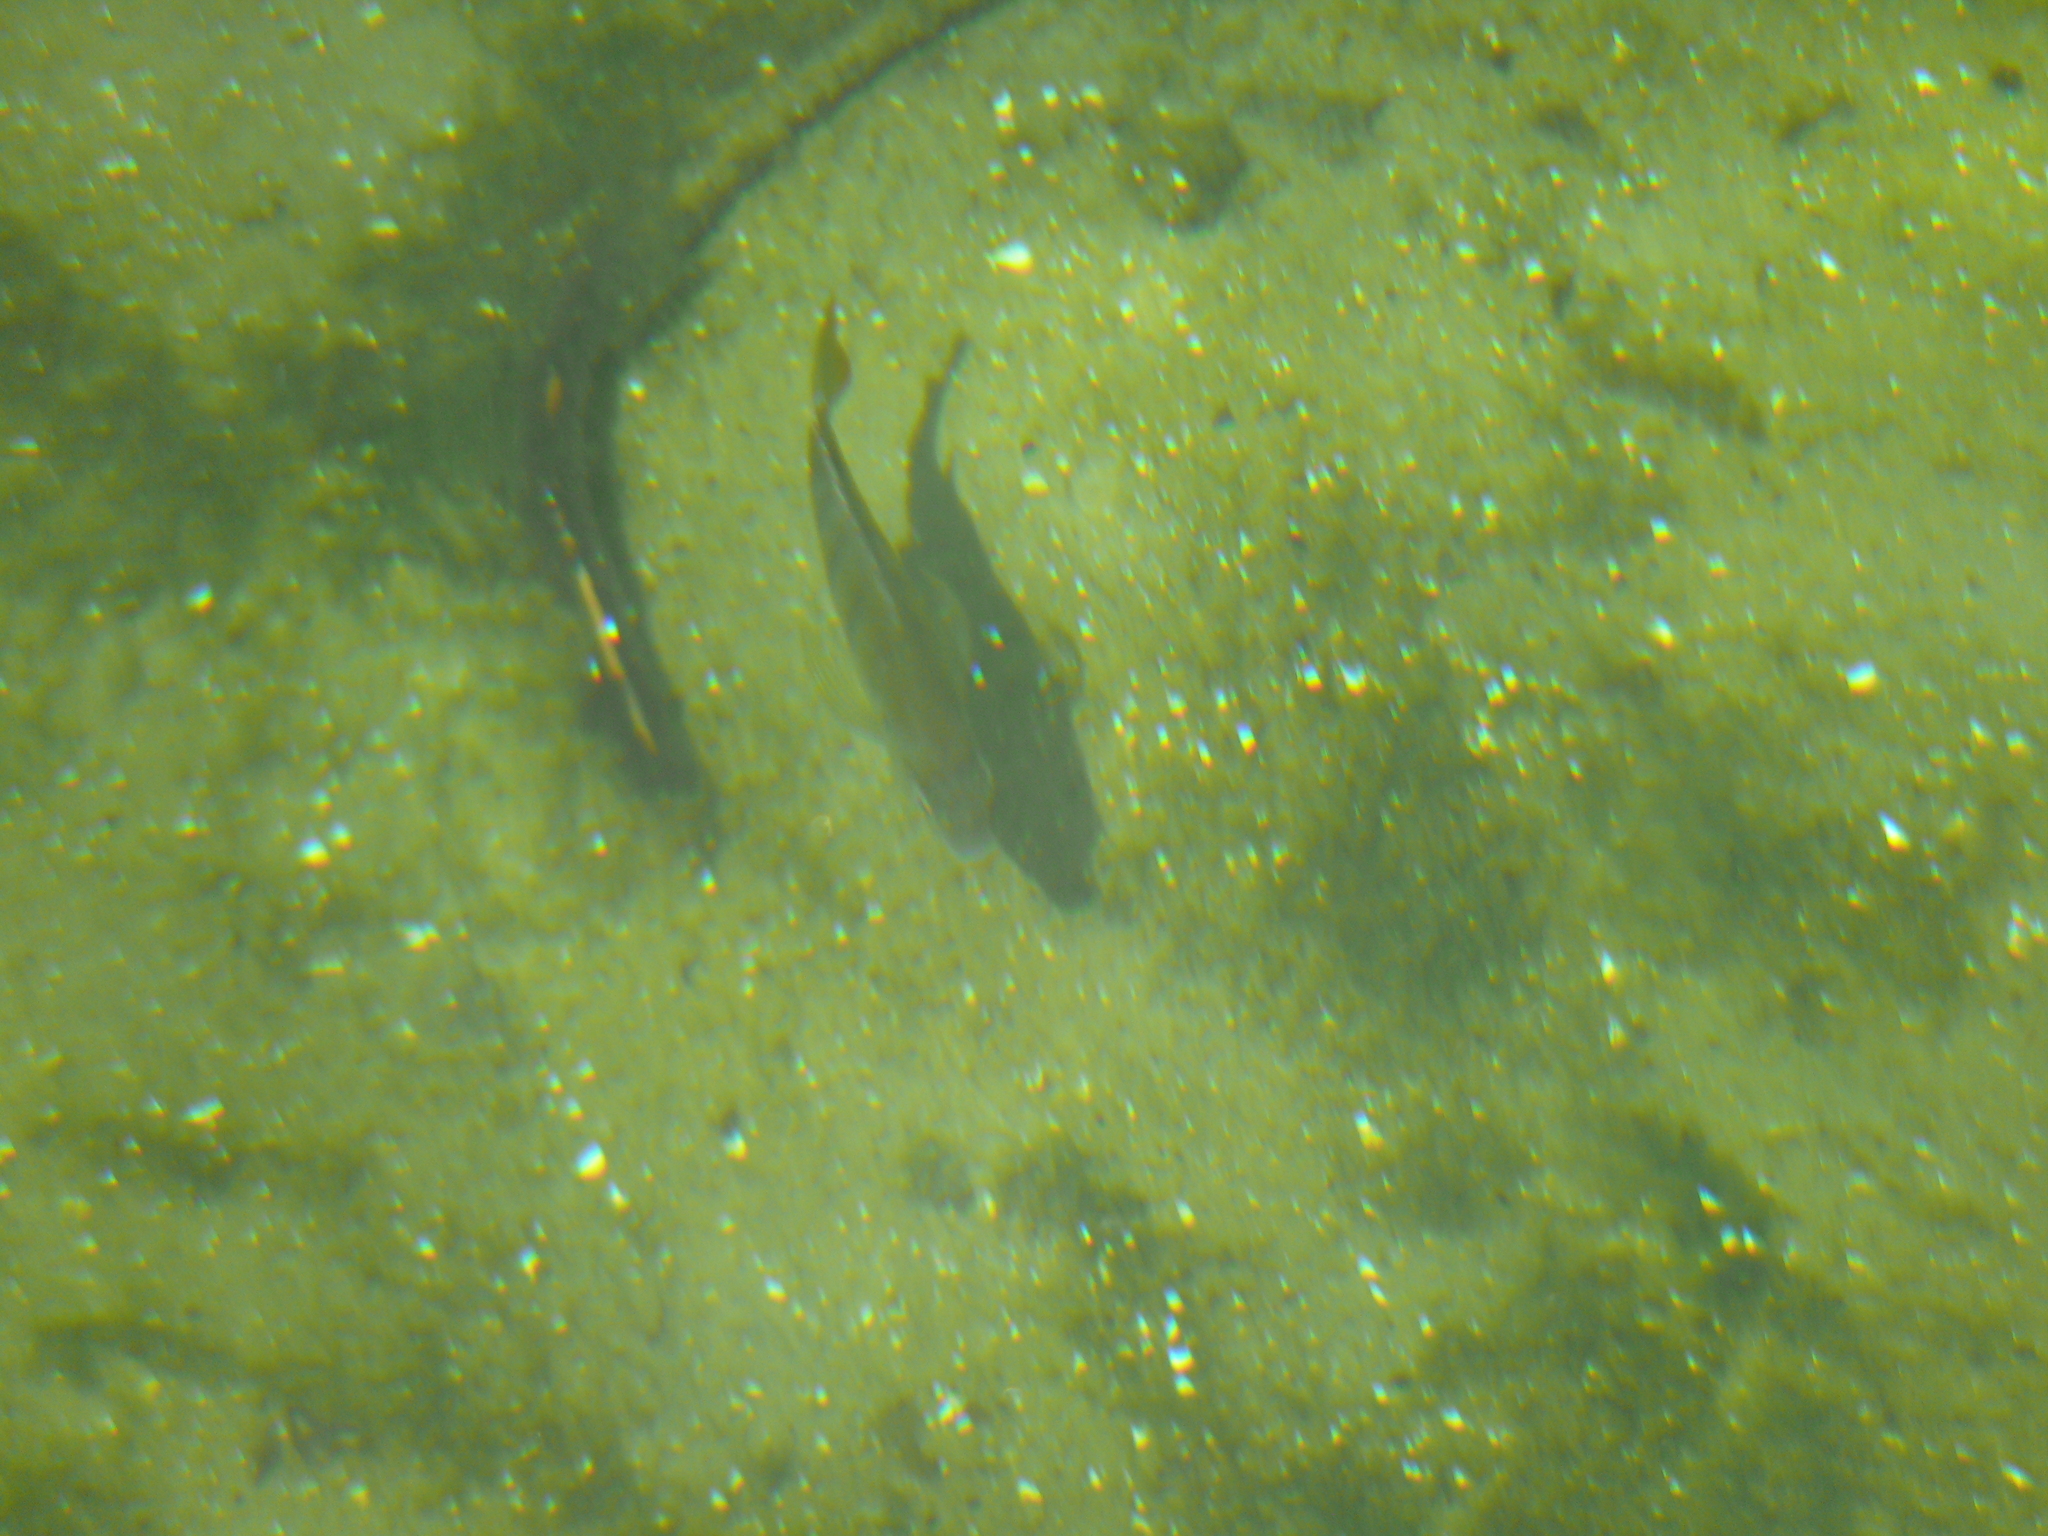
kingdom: Animalia
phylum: Chordata
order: Perciformes
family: Centrarchidae
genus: Lepomis
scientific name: Lepomis
